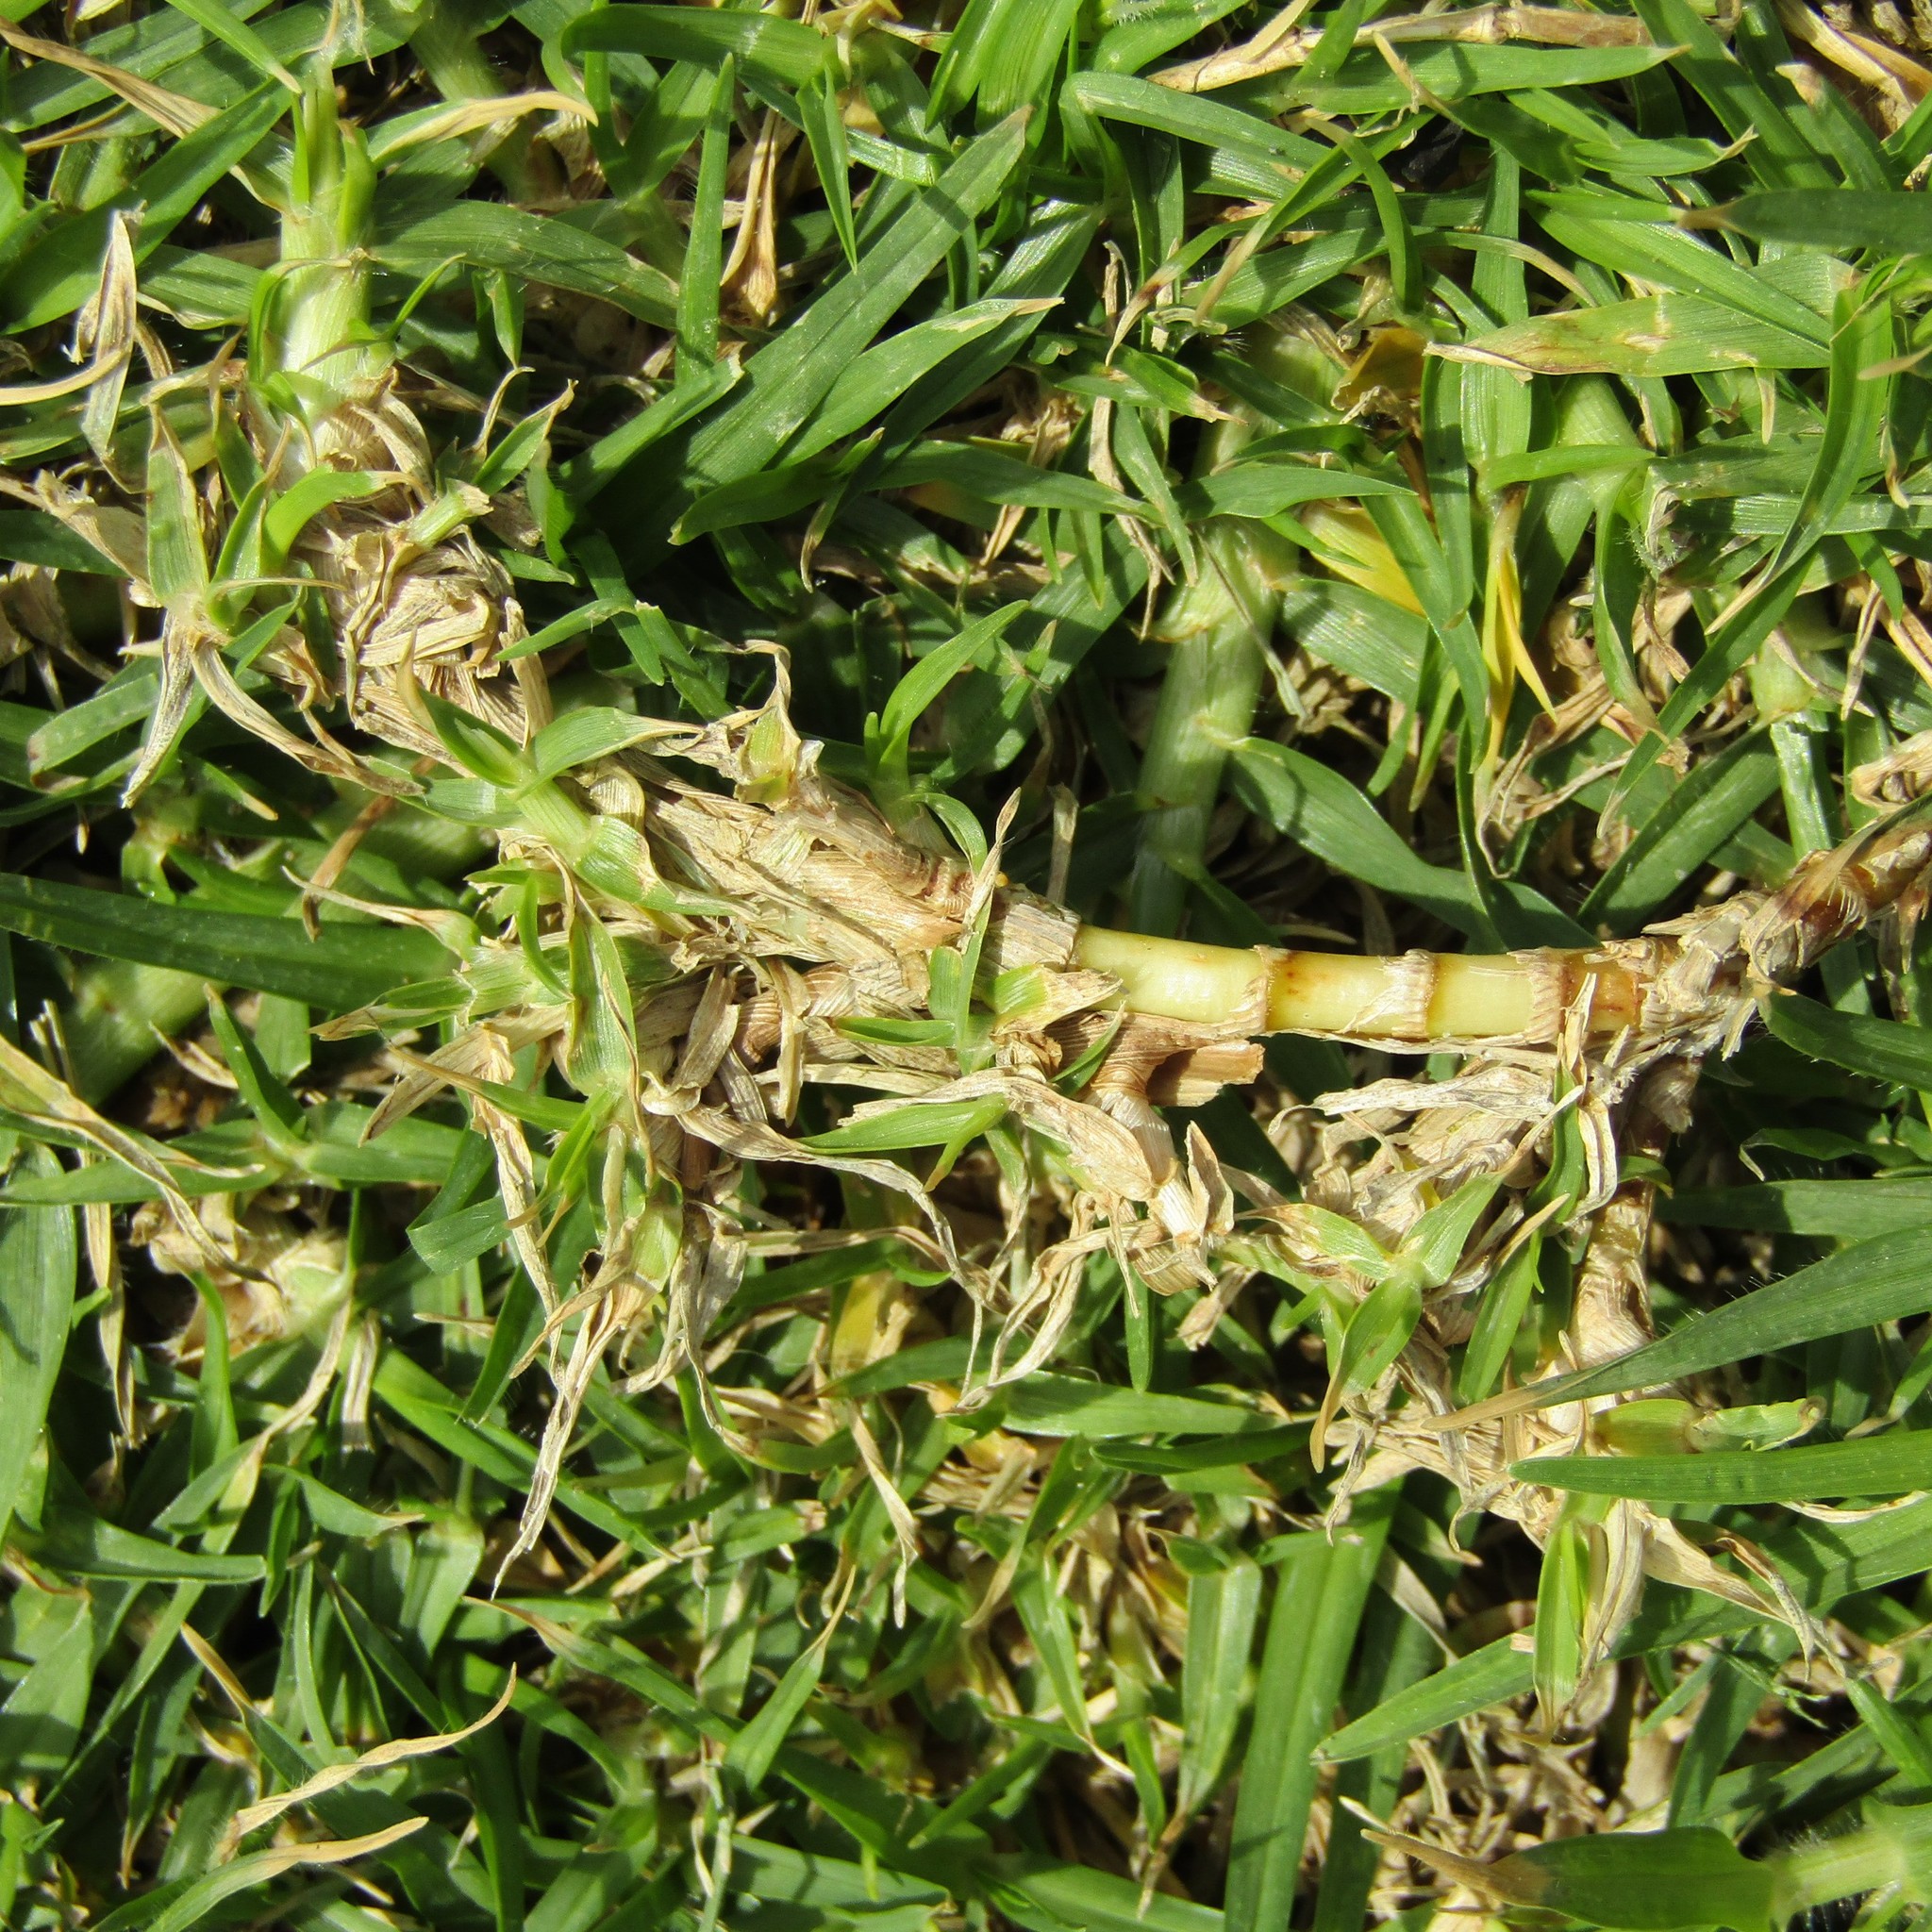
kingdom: Plantae
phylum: Tracheophyta
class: Liliopsida
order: Poales
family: Poaceae
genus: Cenchrus
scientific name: Cenchrus clandestinus
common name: Kikuyugrass
